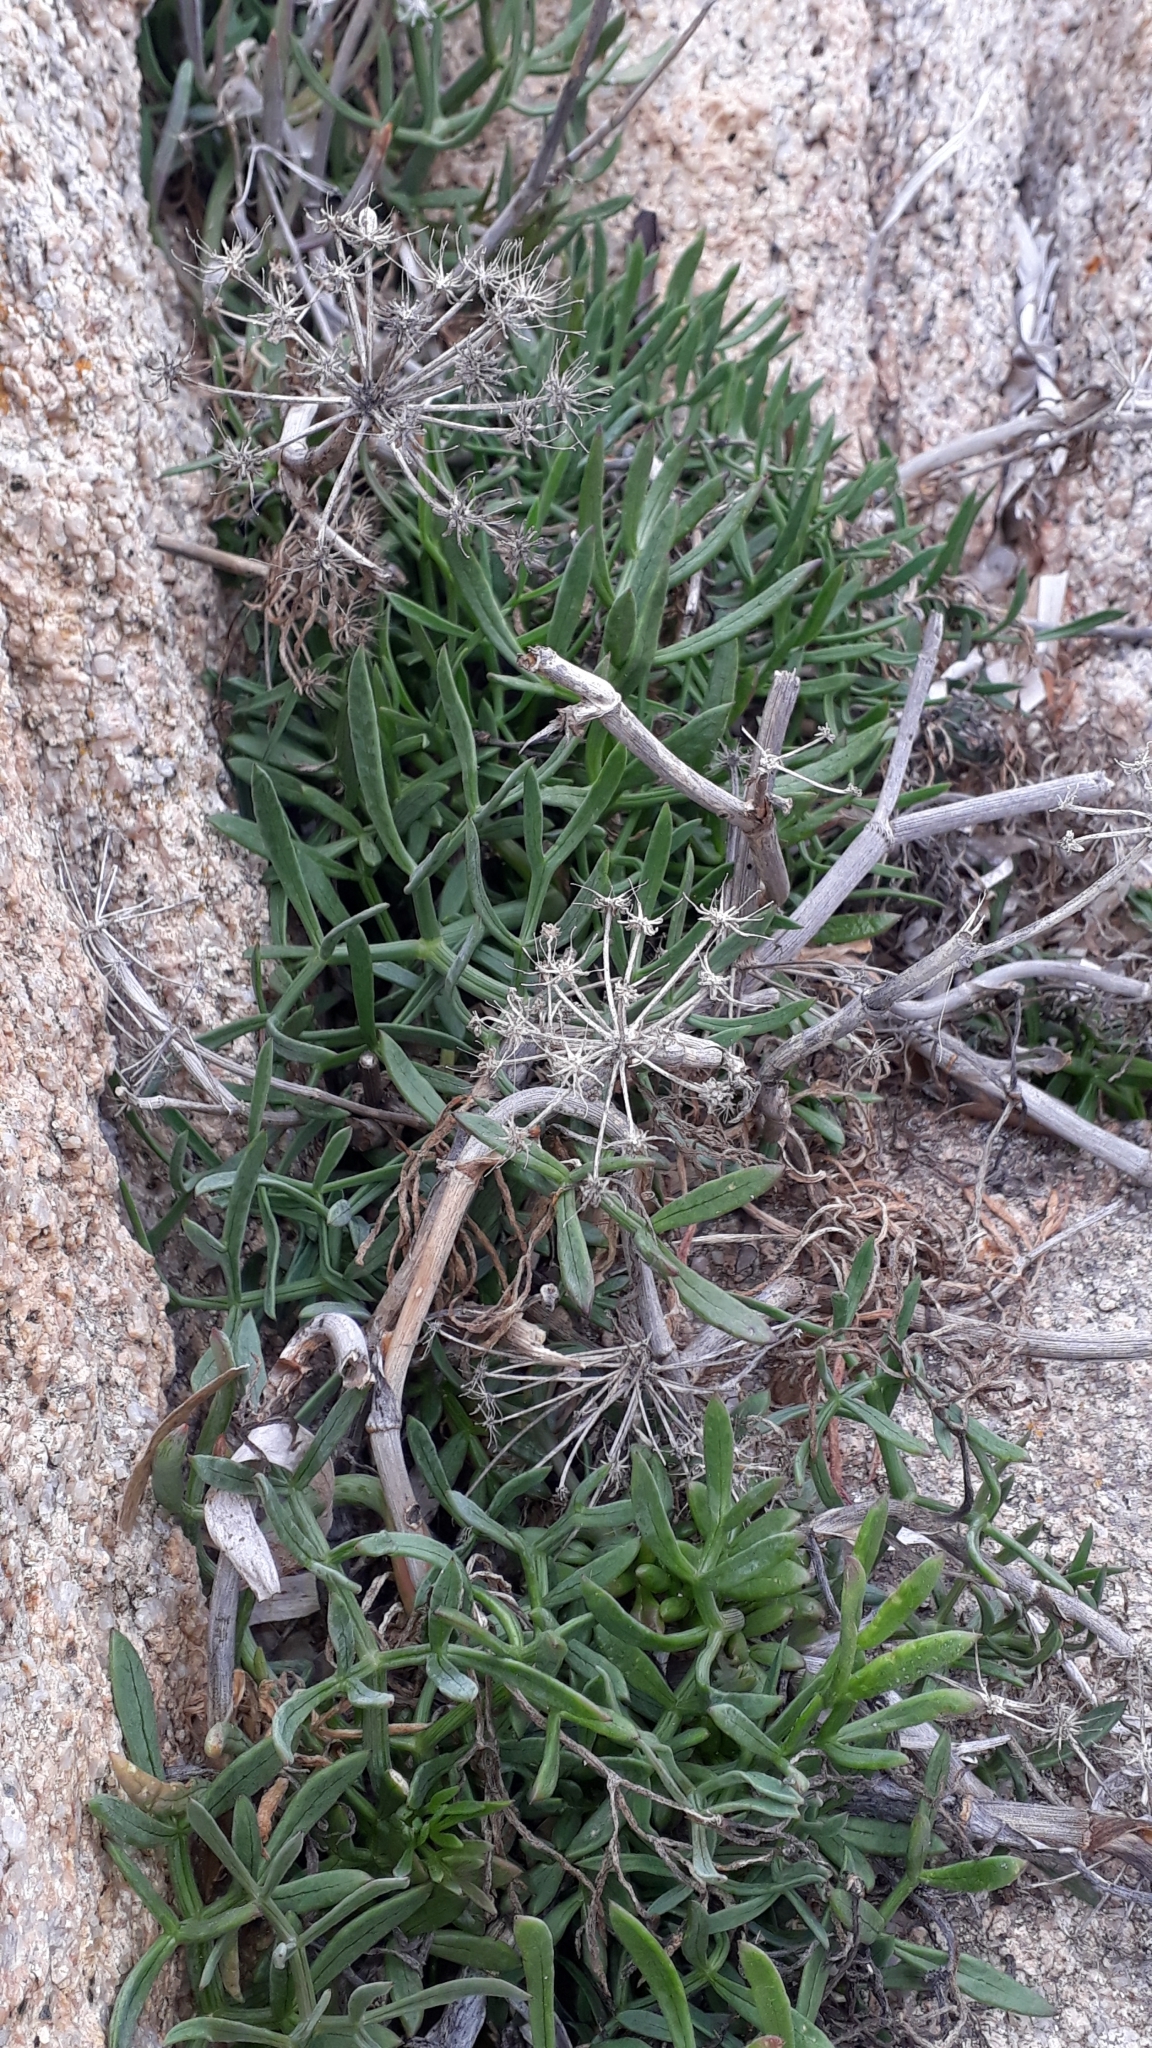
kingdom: Plantae
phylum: Tracheophyta
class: Magnoliopsida
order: Apiales
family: Apiaceae
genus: Crithmum
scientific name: Crithmum maritimum
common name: Rock samphire
